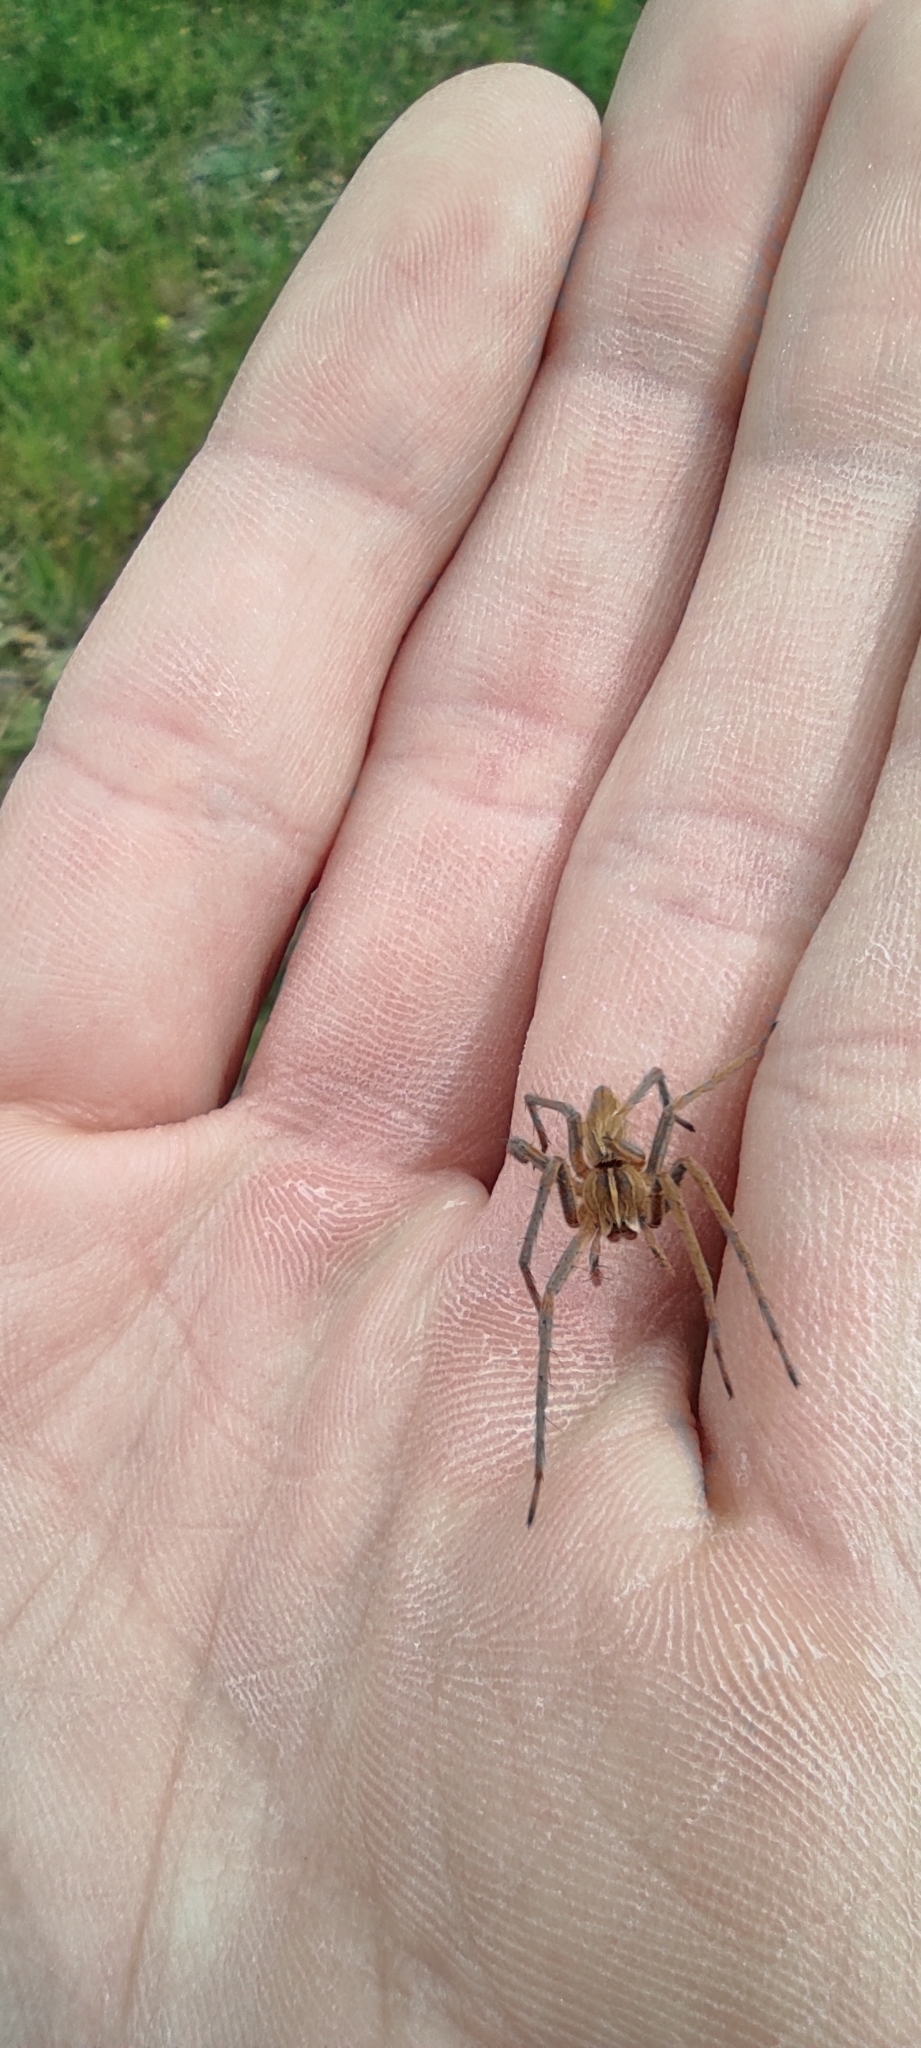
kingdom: Animalia
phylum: Arthropoda
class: Arachnida
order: Araneae
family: Pisauridae
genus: Pisaura
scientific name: Pisaura
